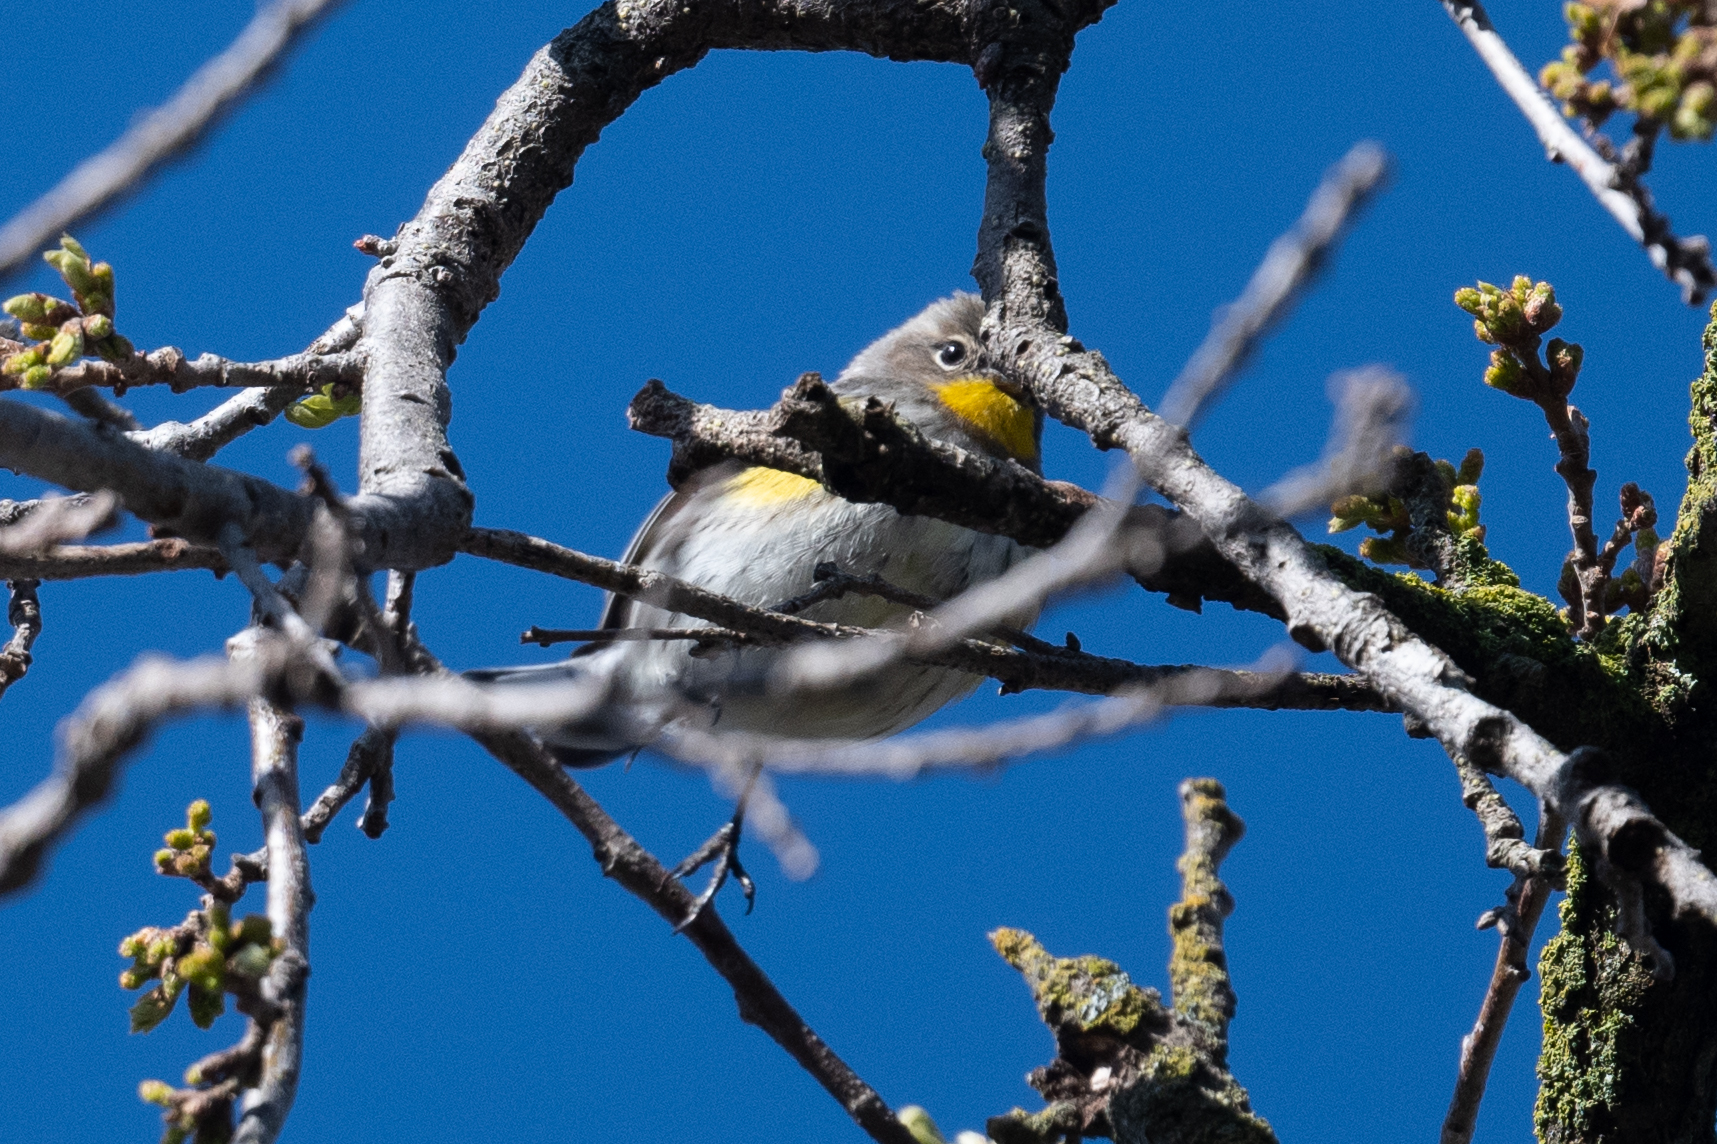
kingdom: Animalia
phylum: Chordata
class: Aves
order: Passeriformes
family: Parulidae
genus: Setophaga
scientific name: Setophaga coronata
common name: Myrtle warbler
